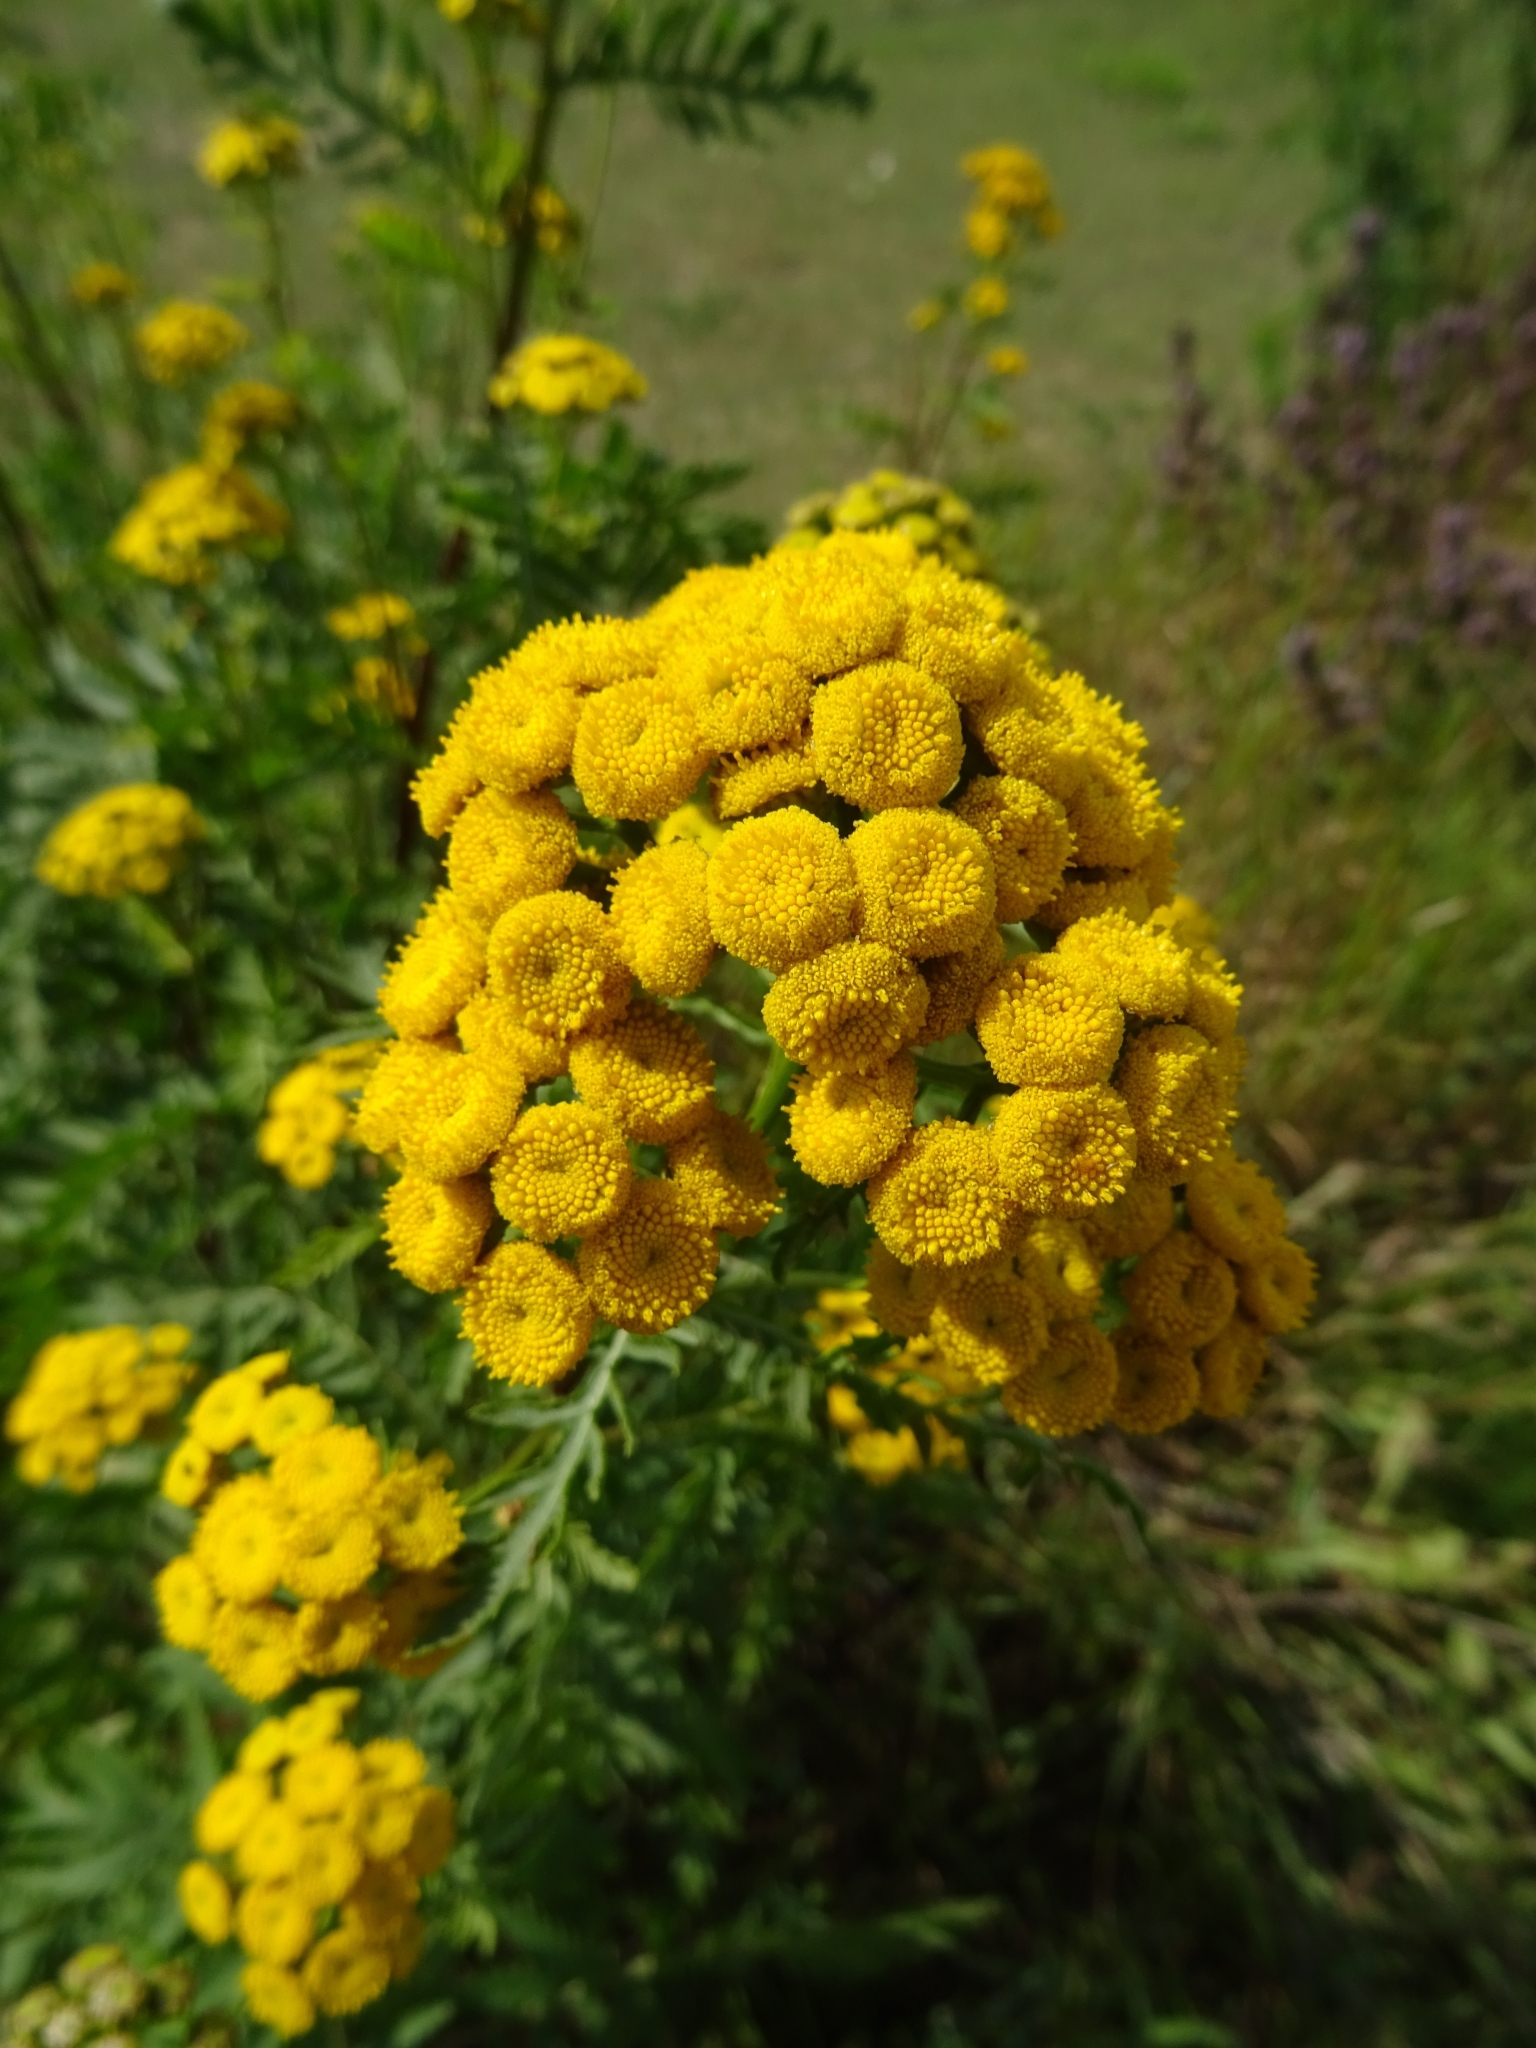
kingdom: Plantae
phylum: Tracheophyta
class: Magnoliopsida
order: Asterales
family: Asteraceae
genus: Tanacetum
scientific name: Tanacetum vulgare
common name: Common tansy
